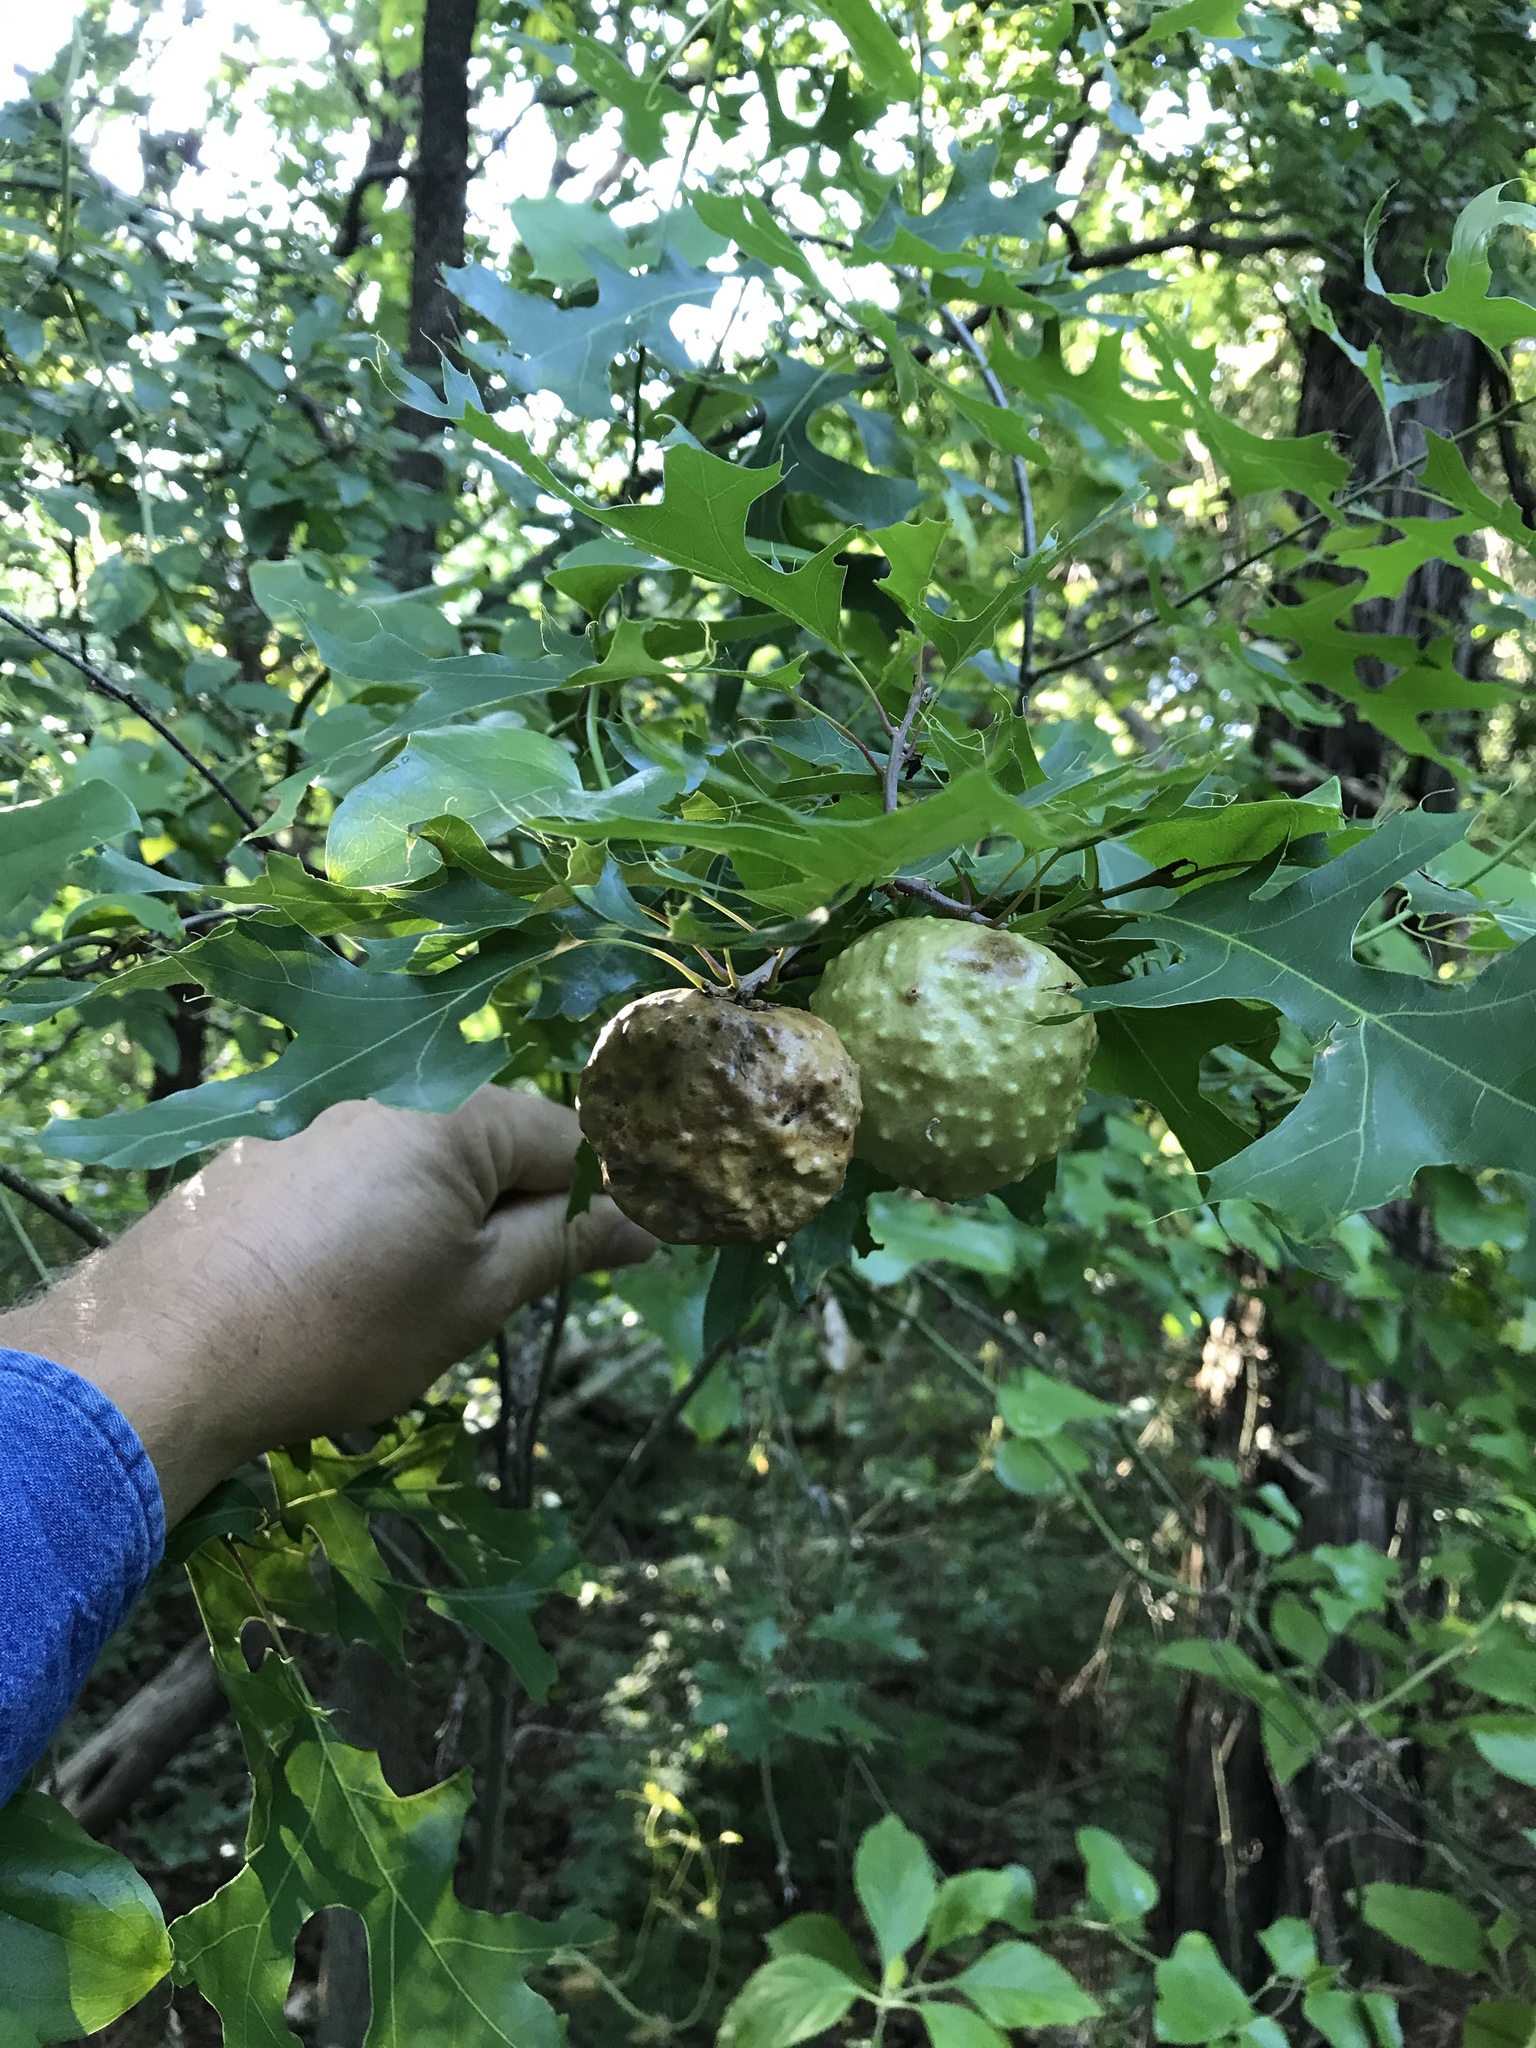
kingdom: Plantae
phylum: Tracheophyta
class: Magnoliopsida
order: Fagales
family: Fagaceae
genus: Quercus
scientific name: Quercus buckleyi
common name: Buckley oak
